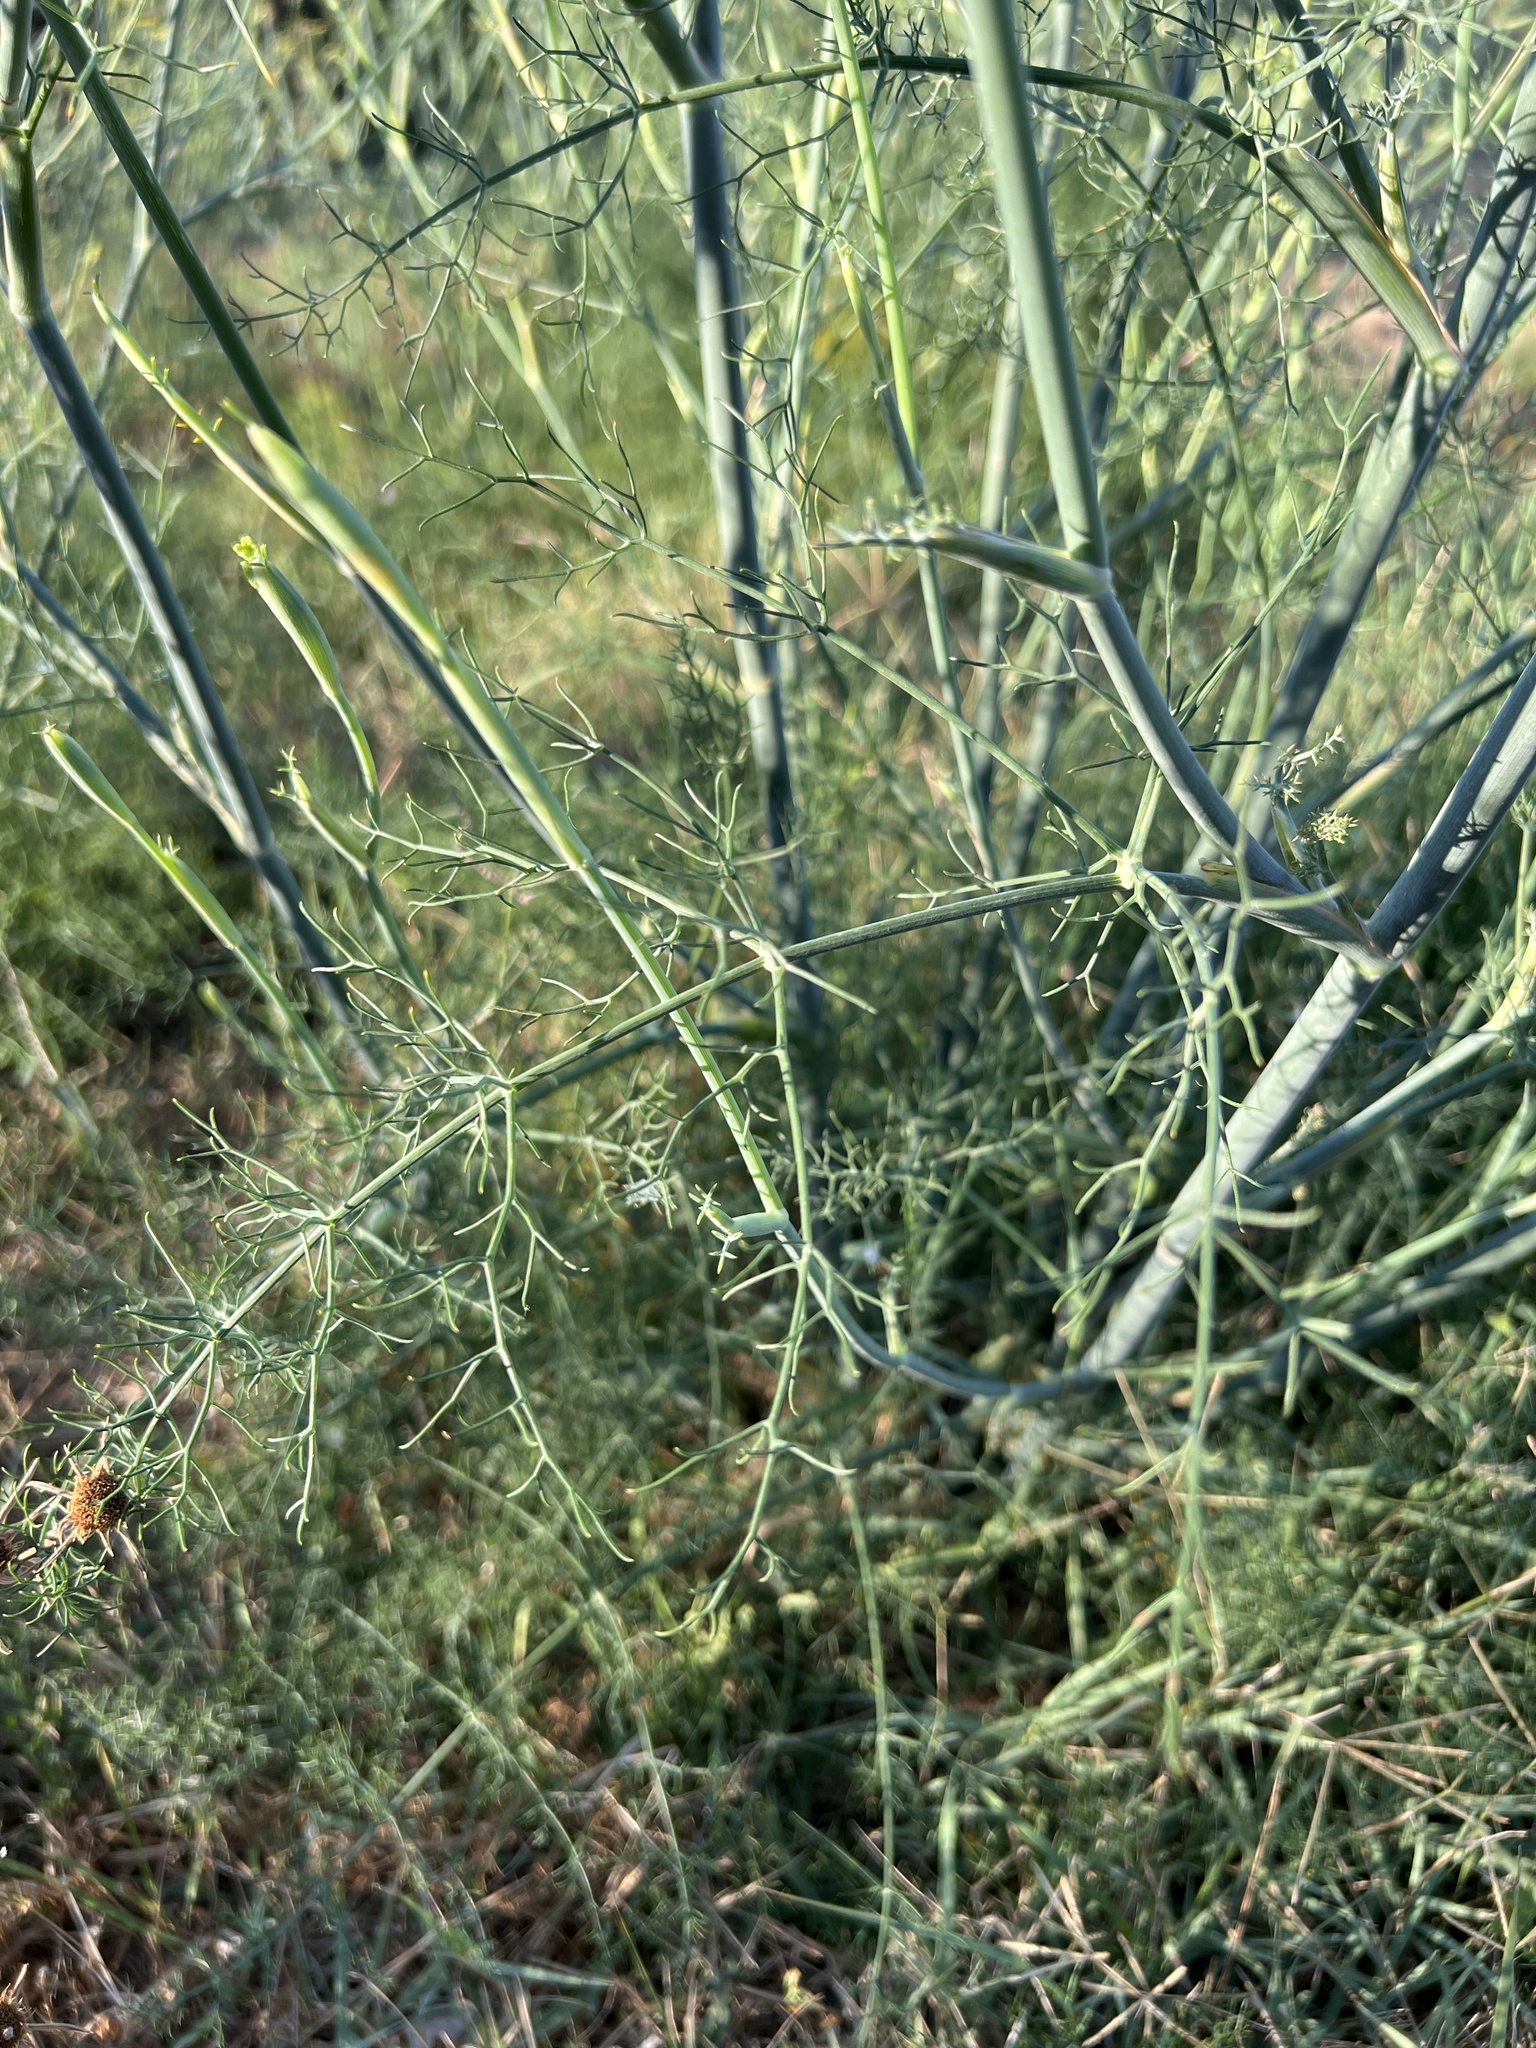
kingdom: Plantae
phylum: Tracheophyta
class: Magnoliopsida
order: Apiales
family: Apiaceae
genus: Foeniculum
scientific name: Foeniculum vulgare
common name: Fennel
